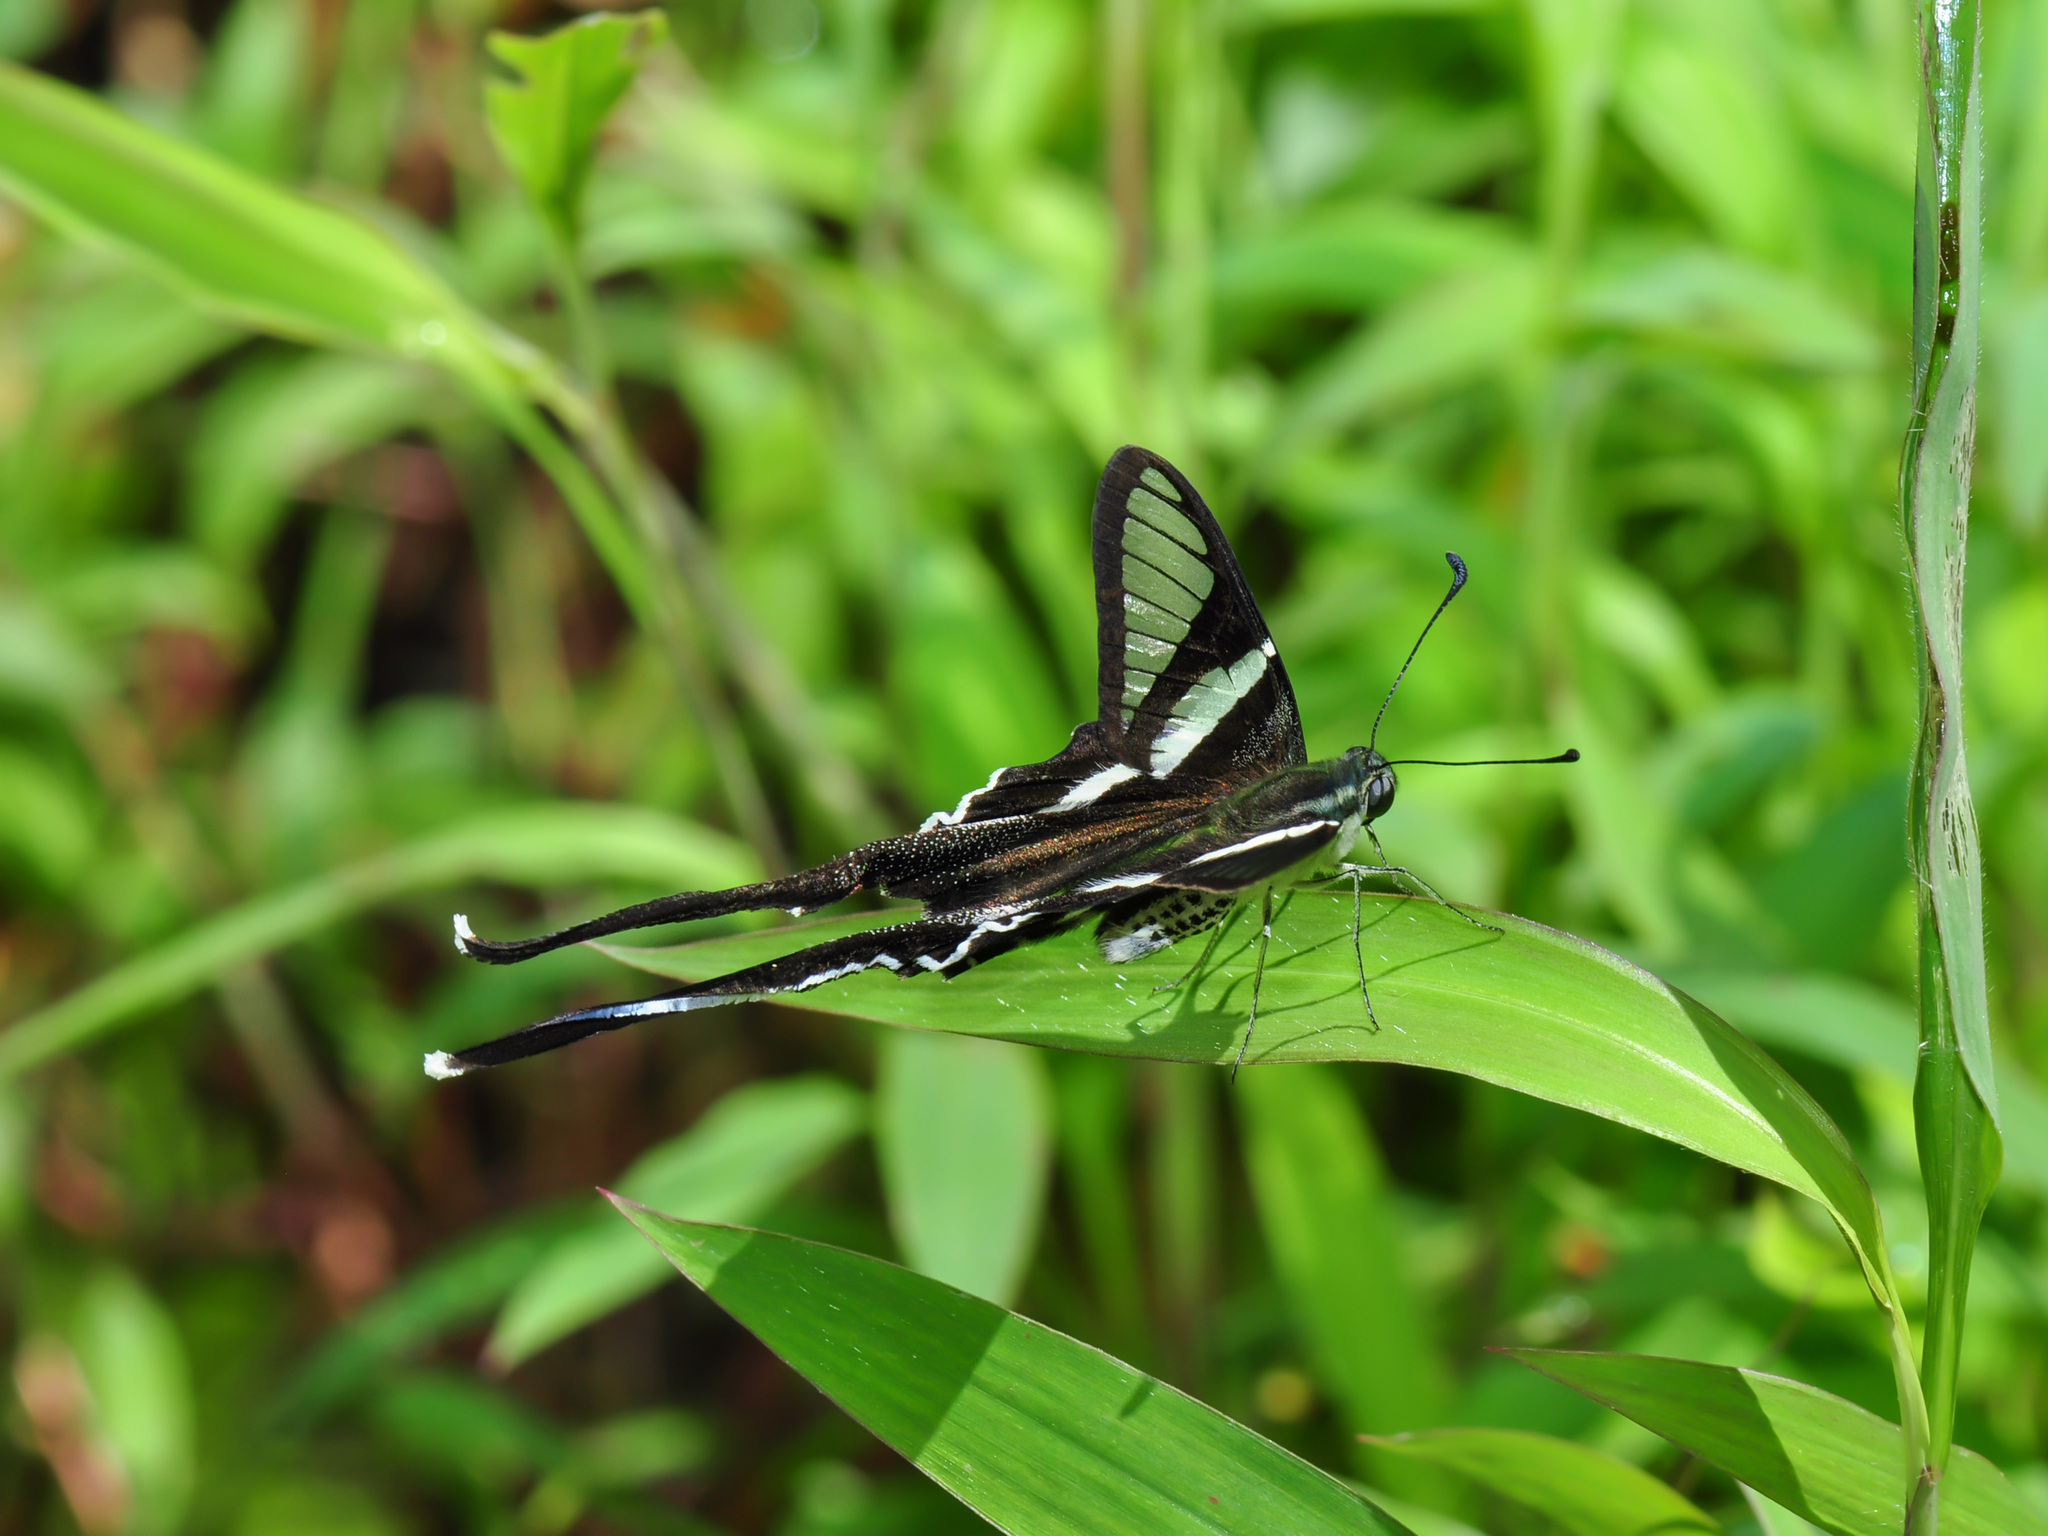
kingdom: Animalia
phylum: Arthropoda
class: Insecta
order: Lepidoptera
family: Papilionidae
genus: Lamproptera
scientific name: Lamproptera curius
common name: White dragontail
